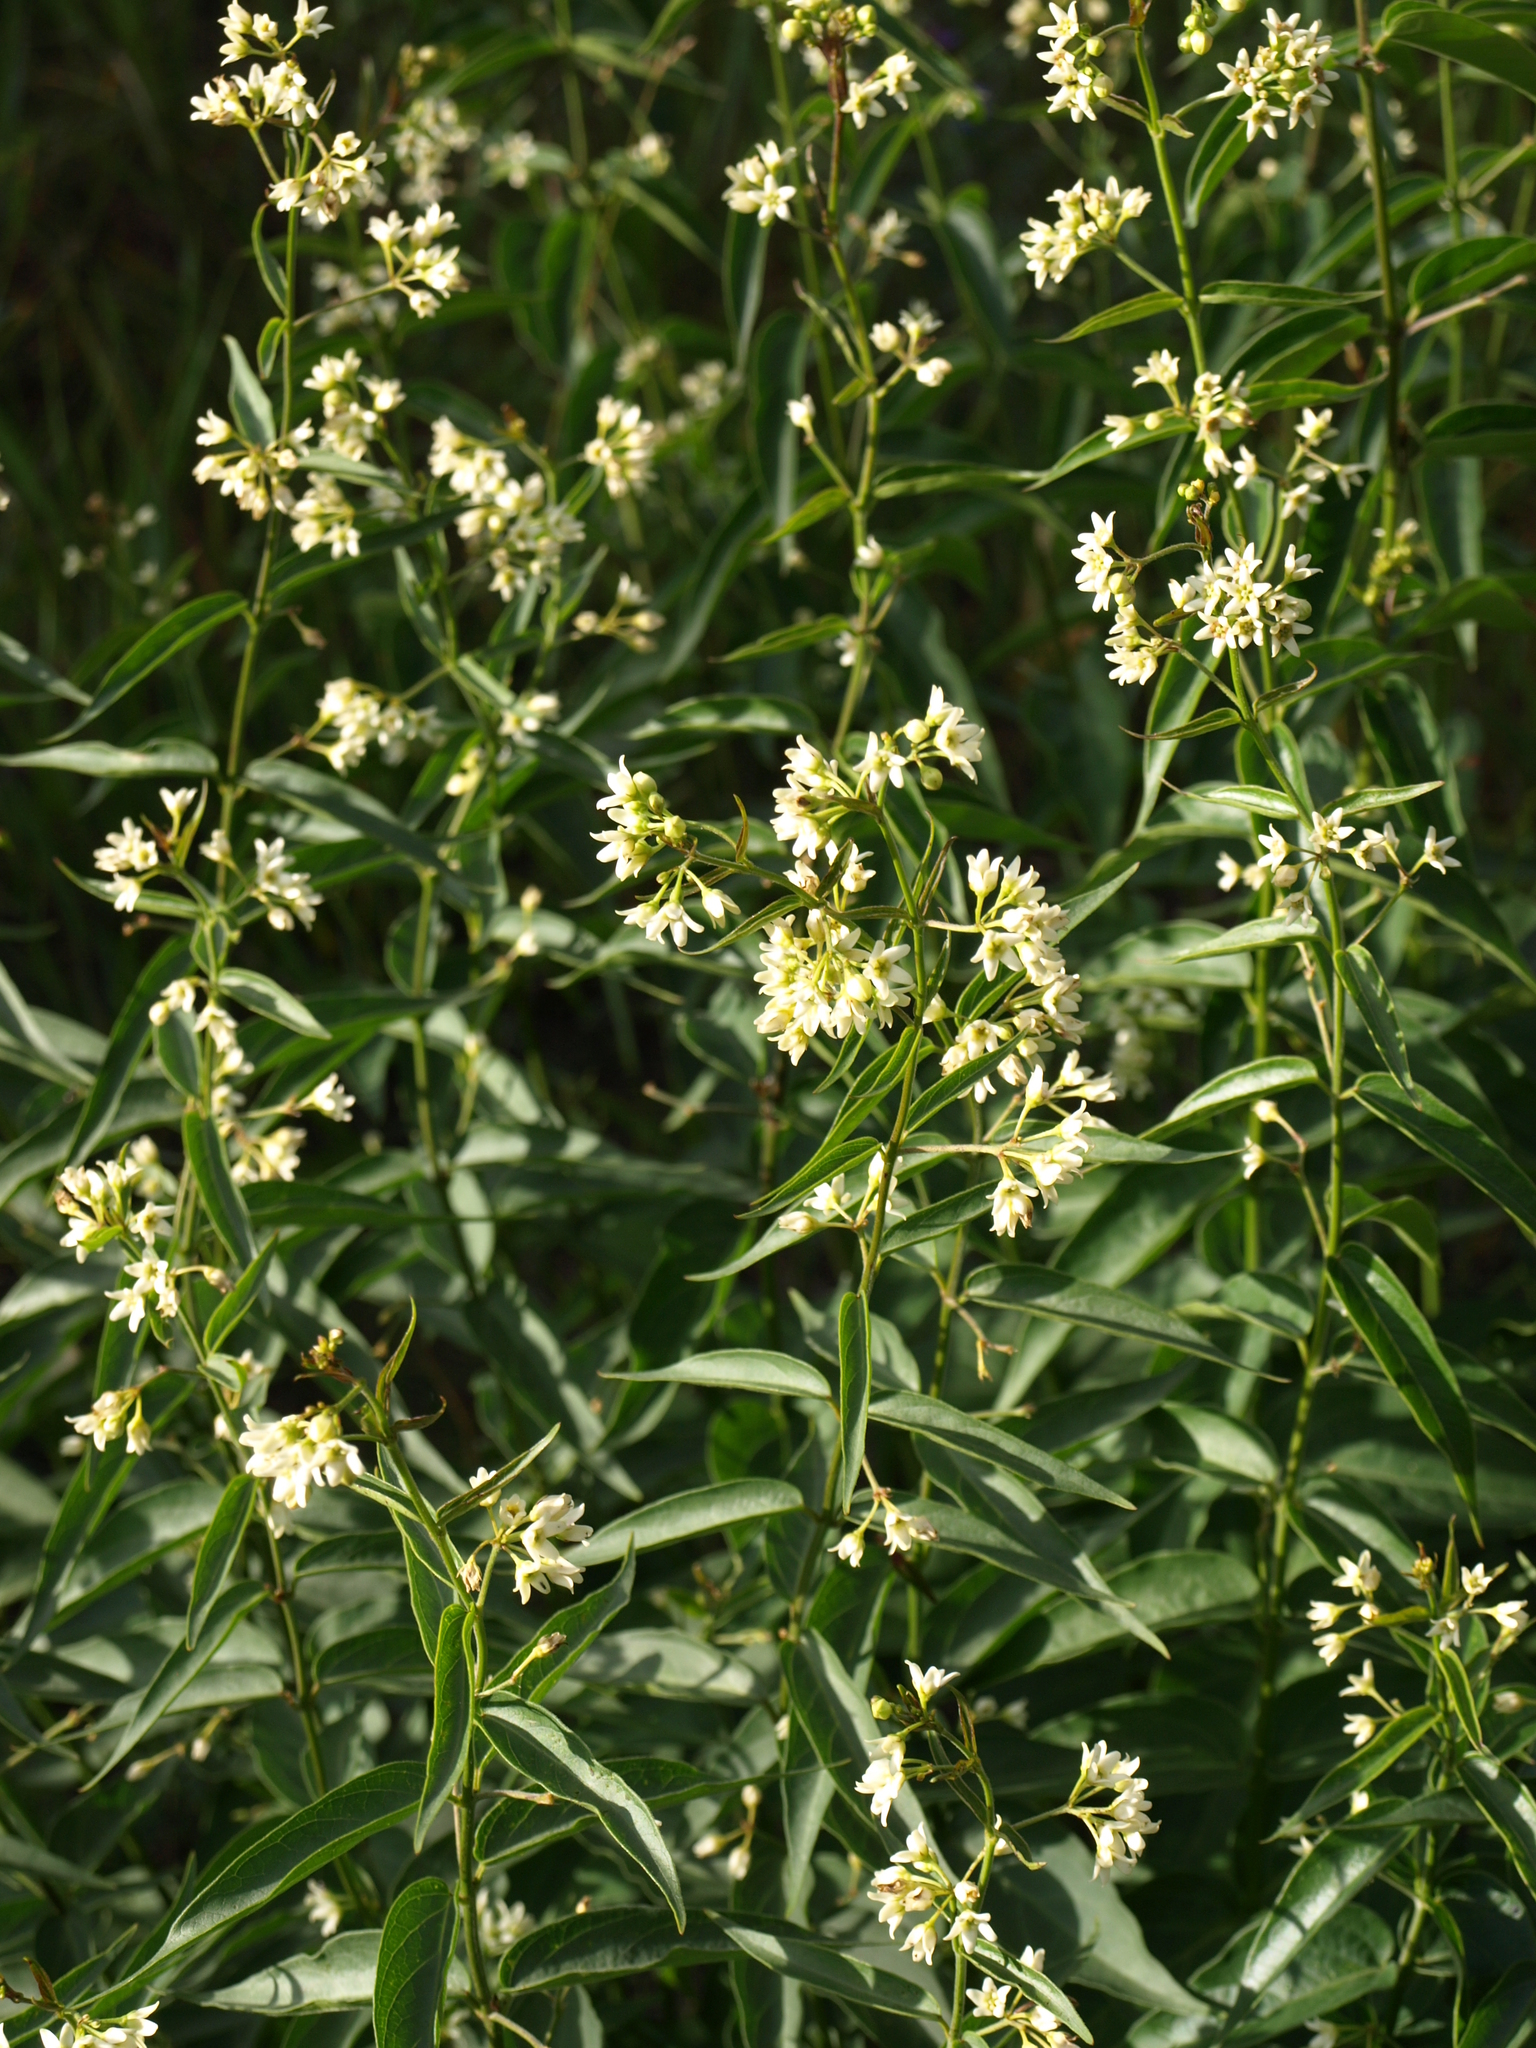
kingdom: Plantae
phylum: Tracheophyta
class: Magnoliopsida
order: Gentianales
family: Apocynaceae
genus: Vincetoxicum
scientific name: Vincetoxicum hirundinaria
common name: White swallowwort
